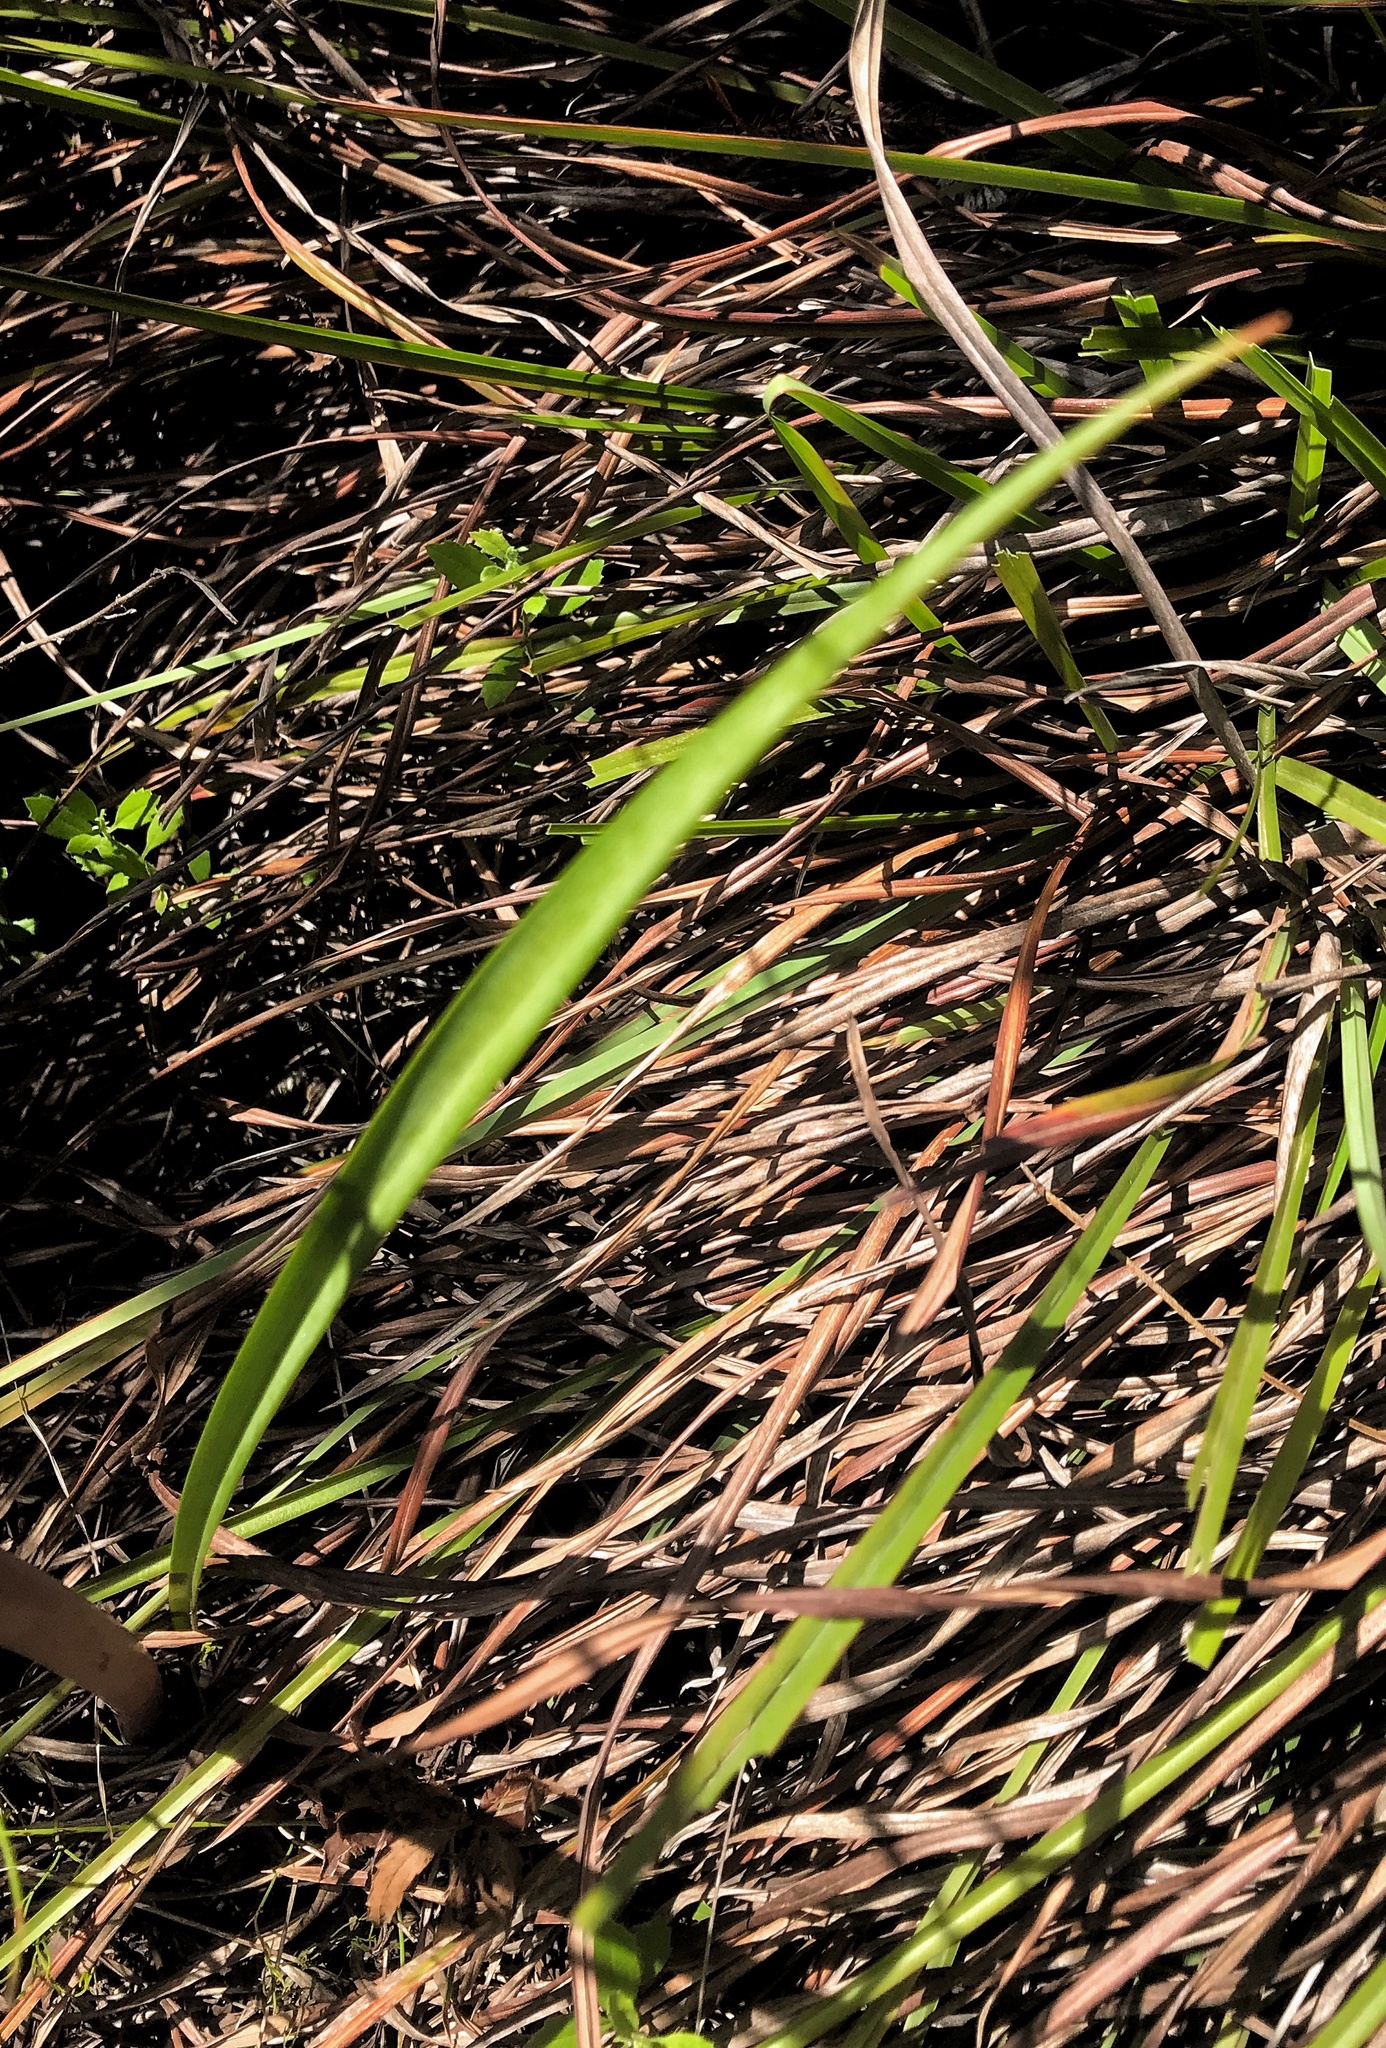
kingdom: Plantae
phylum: Tracheophyta
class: Liliopsida
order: Asparagales
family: Amaryllidaceae
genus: Cyrtanthus
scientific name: Cyrtanthus angustifolius
